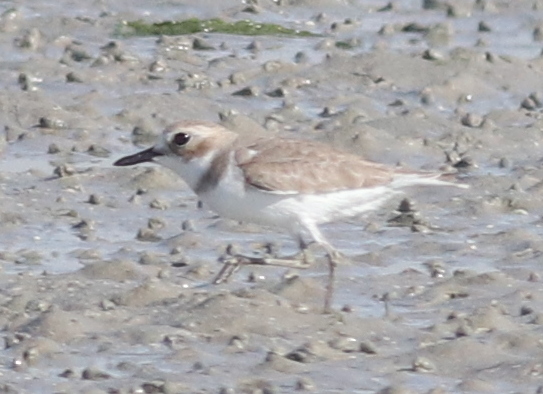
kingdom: Animalia
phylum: Chordata
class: Aves
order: Charadriiformes
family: Charadriidae
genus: Charadrius
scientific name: Charadrius leschenaultii
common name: Greater sand plover
